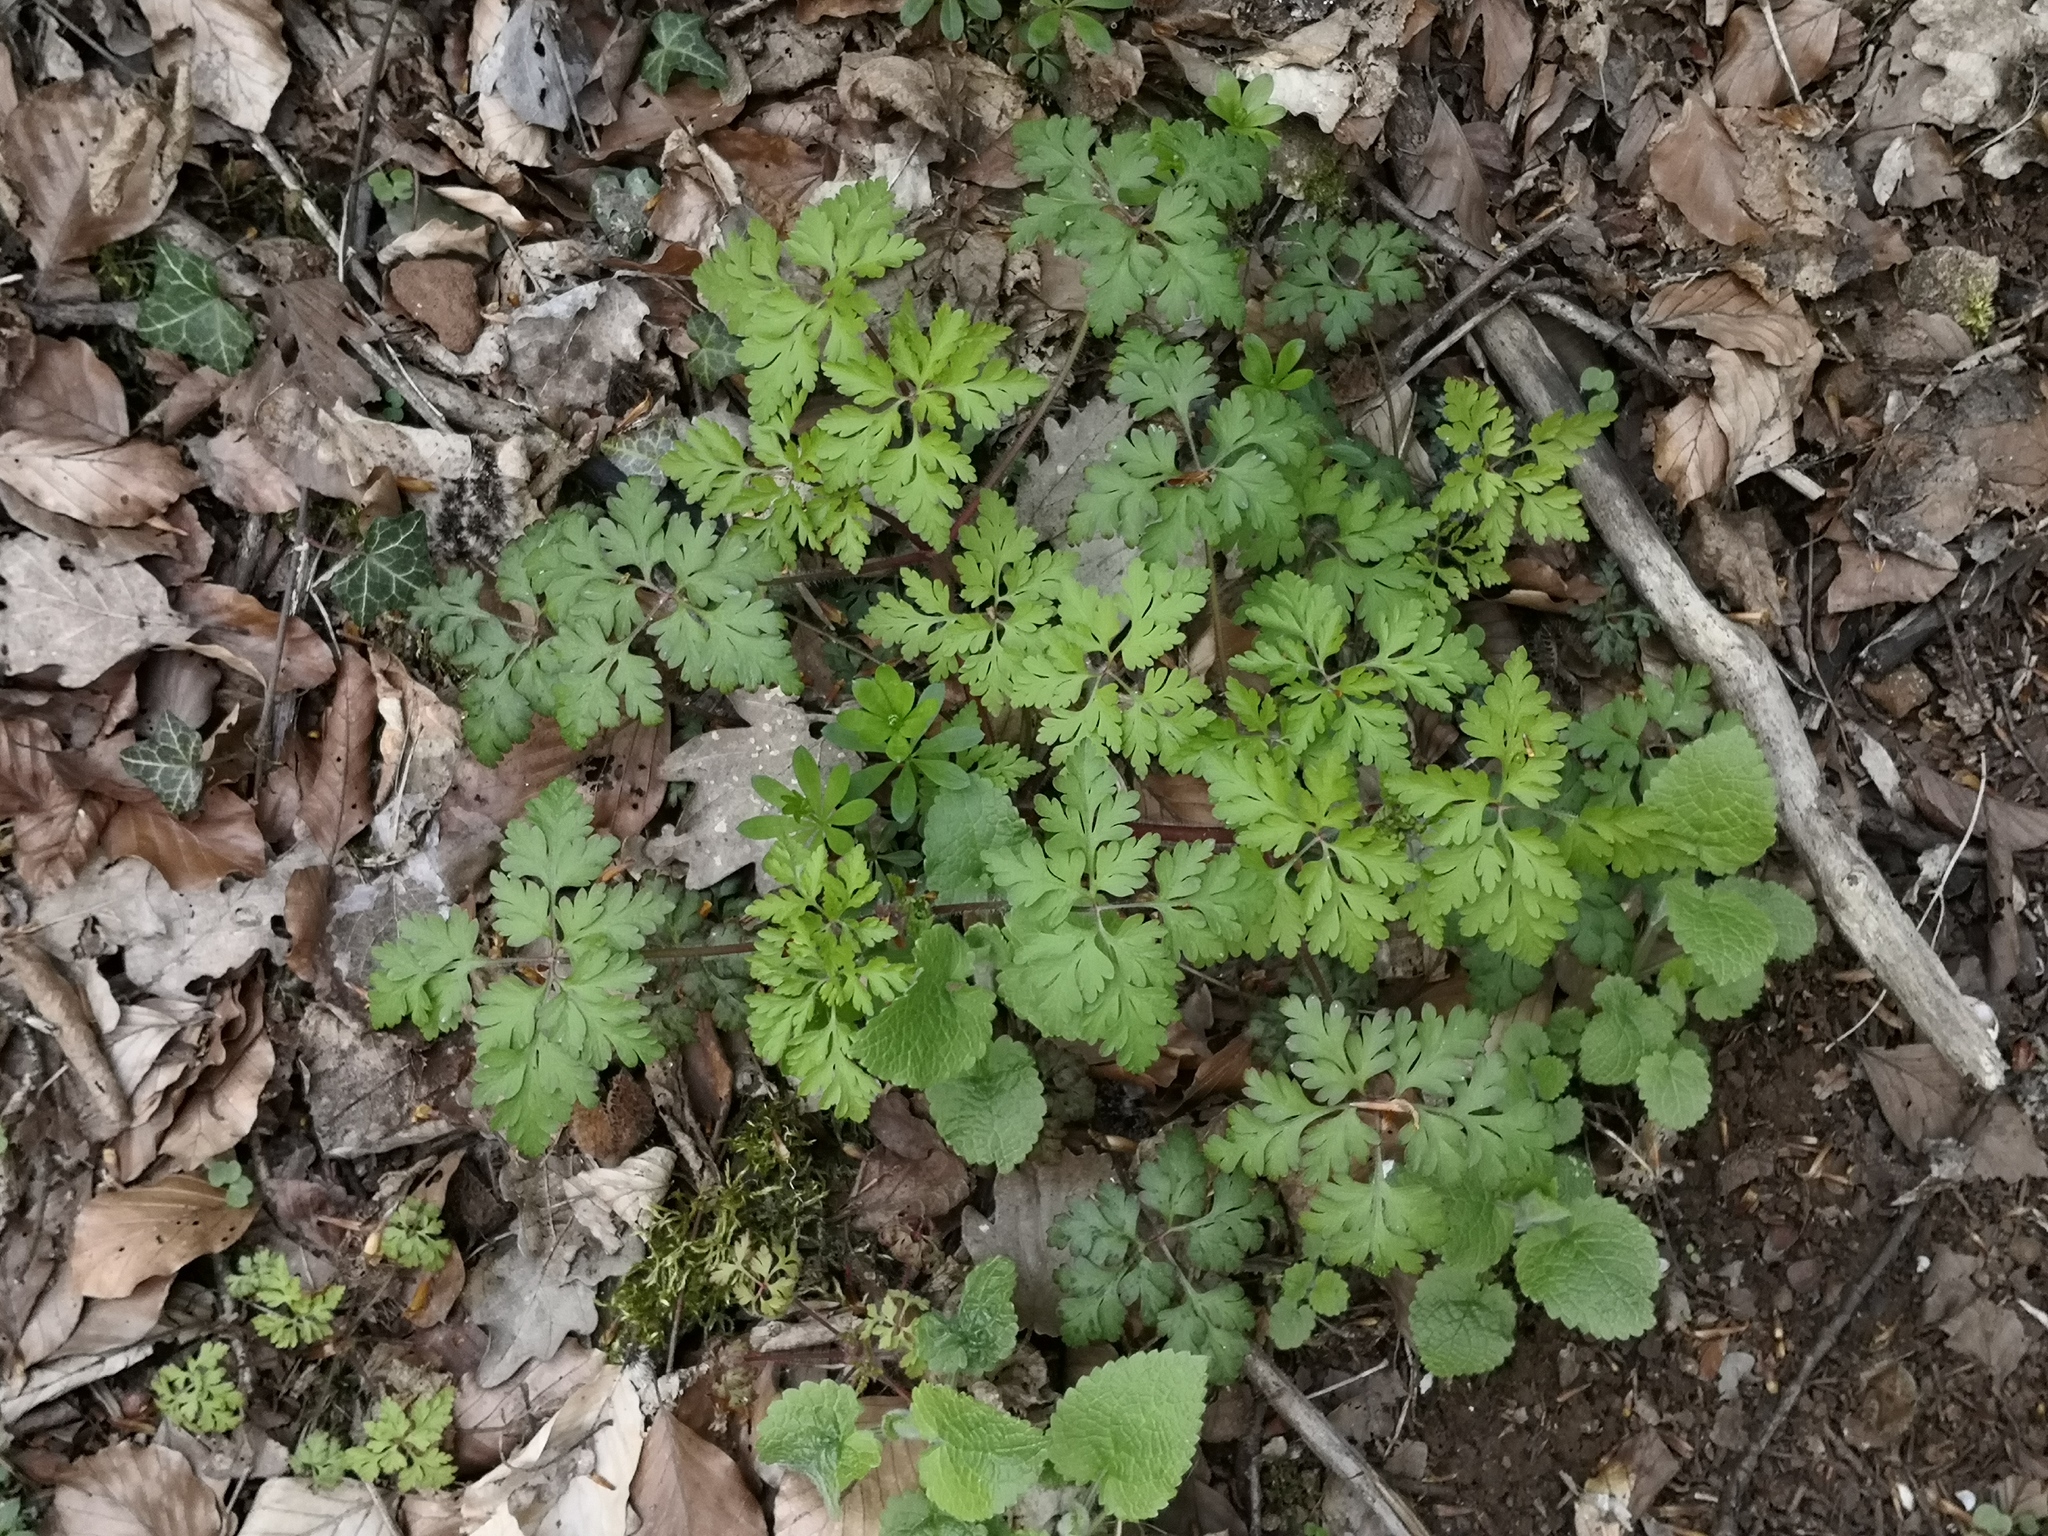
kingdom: Plantae
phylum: Tracheophyta
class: Magnoliopsida
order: Geraniales
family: Geraniaceae
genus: Geranium
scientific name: Geranium robertianum
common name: Herb-robert
